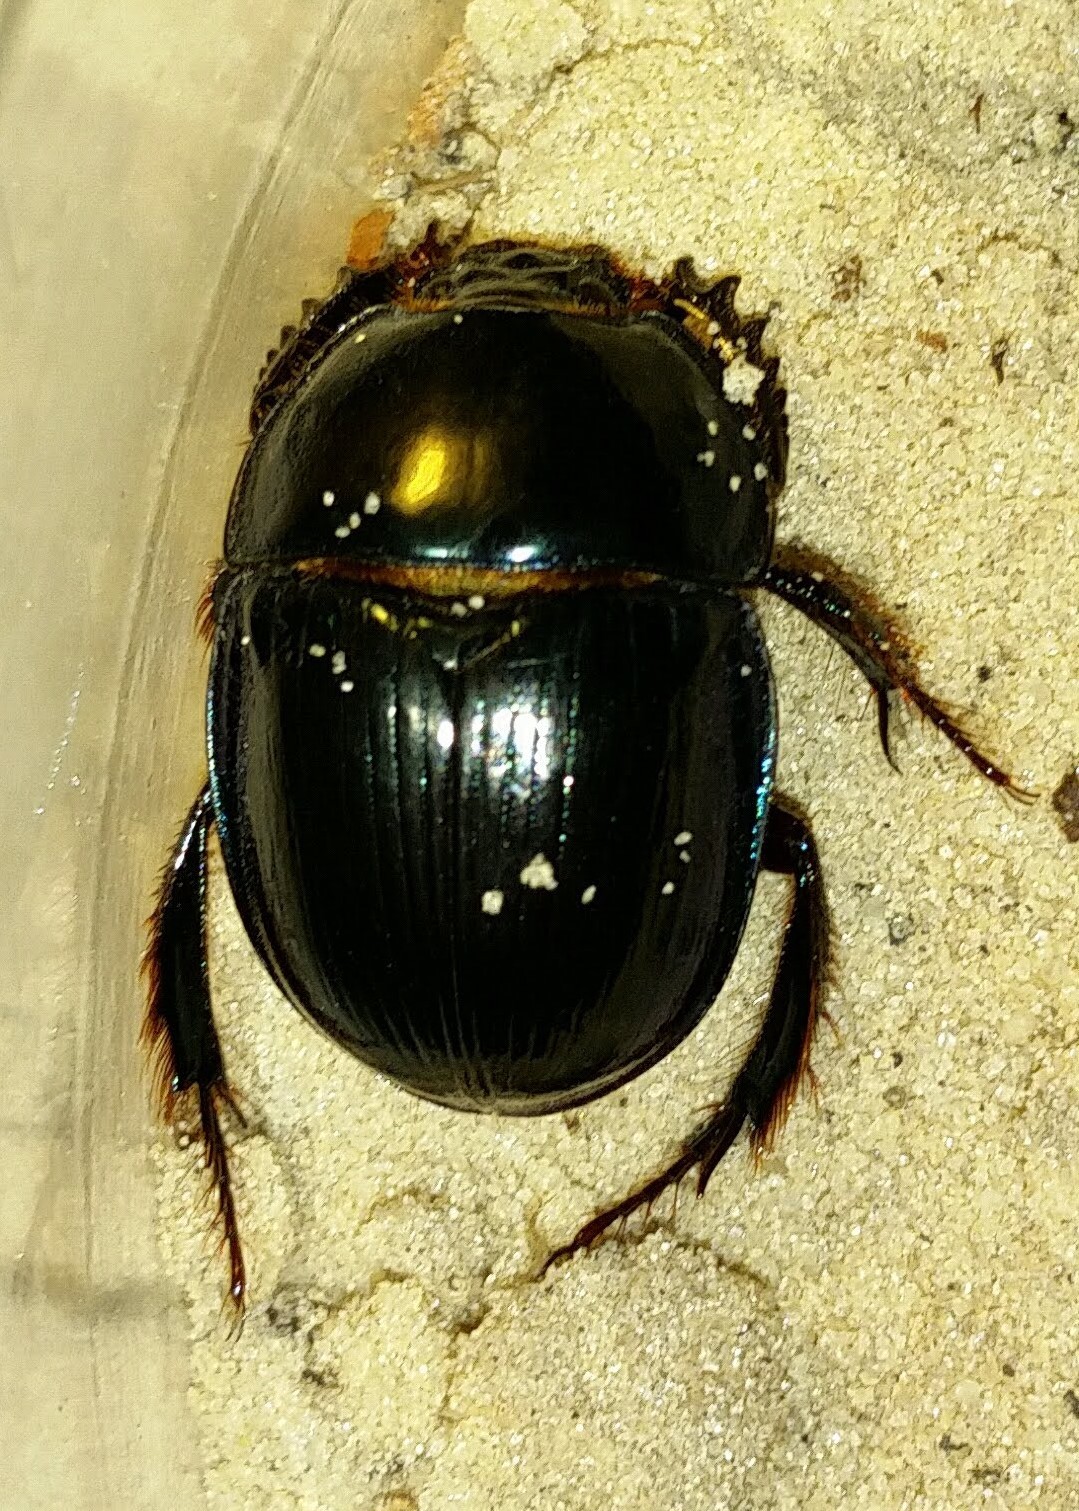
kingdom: Animalia
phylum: Arthropoda
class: Insecta
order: Coleoptera
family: Geotrupidae
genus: Peltotrupes
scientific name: Peltotrupes profundus
